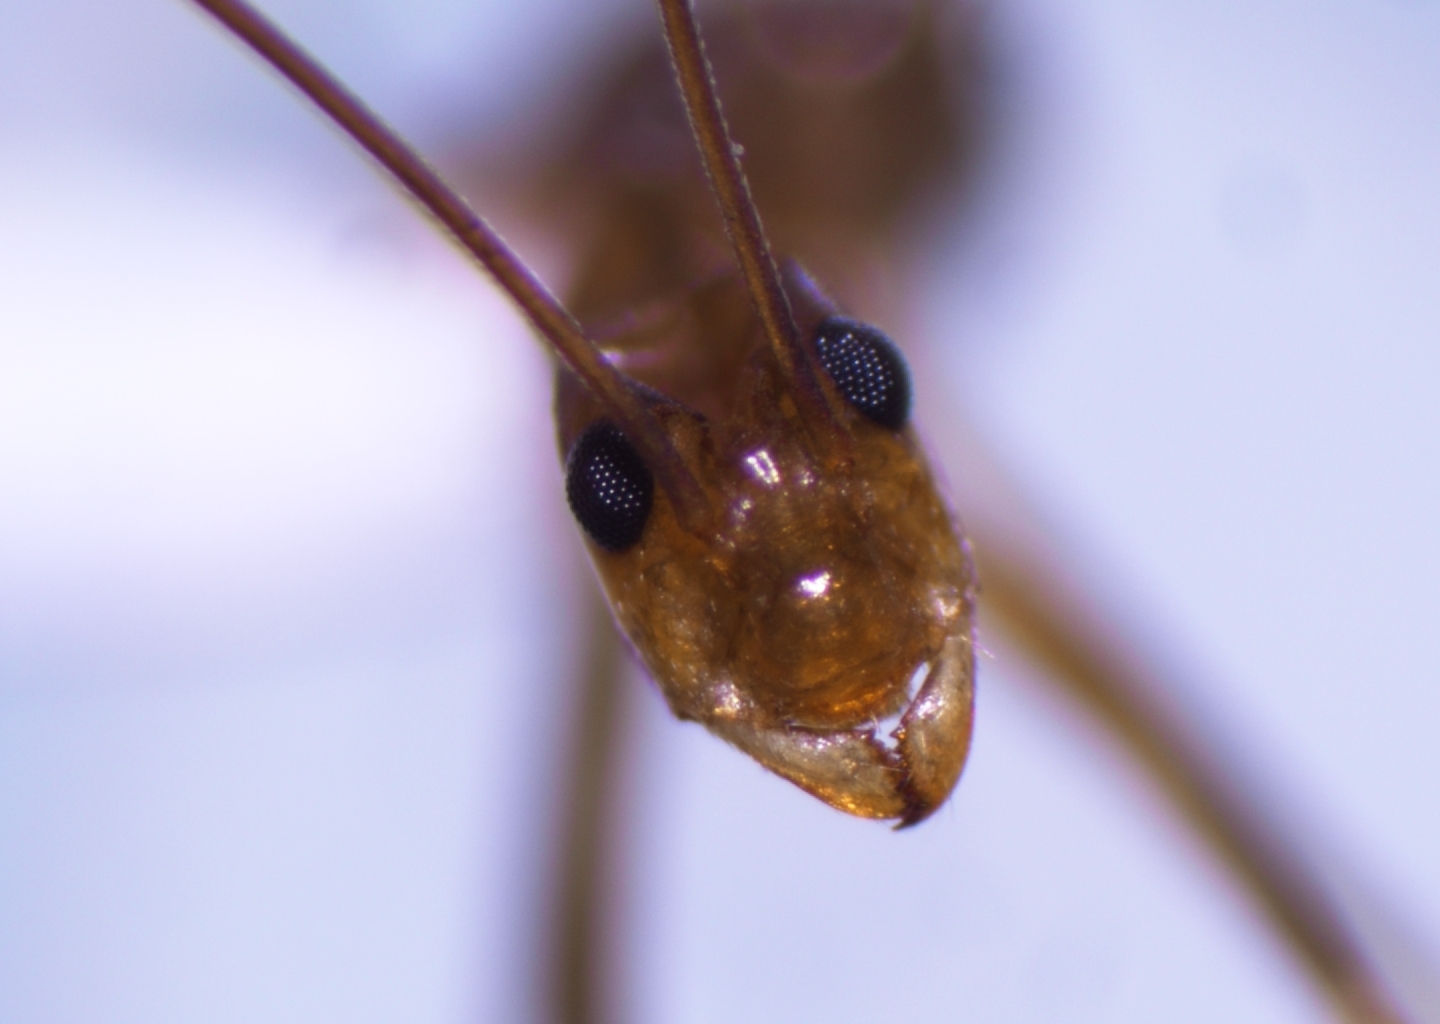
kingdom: Animalia
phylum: Arthropoda
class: Insecta
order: Hymenoptera
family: Formicidae
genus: Anoplolepis
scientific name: Anoplolepis gracilipes
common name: Ant
